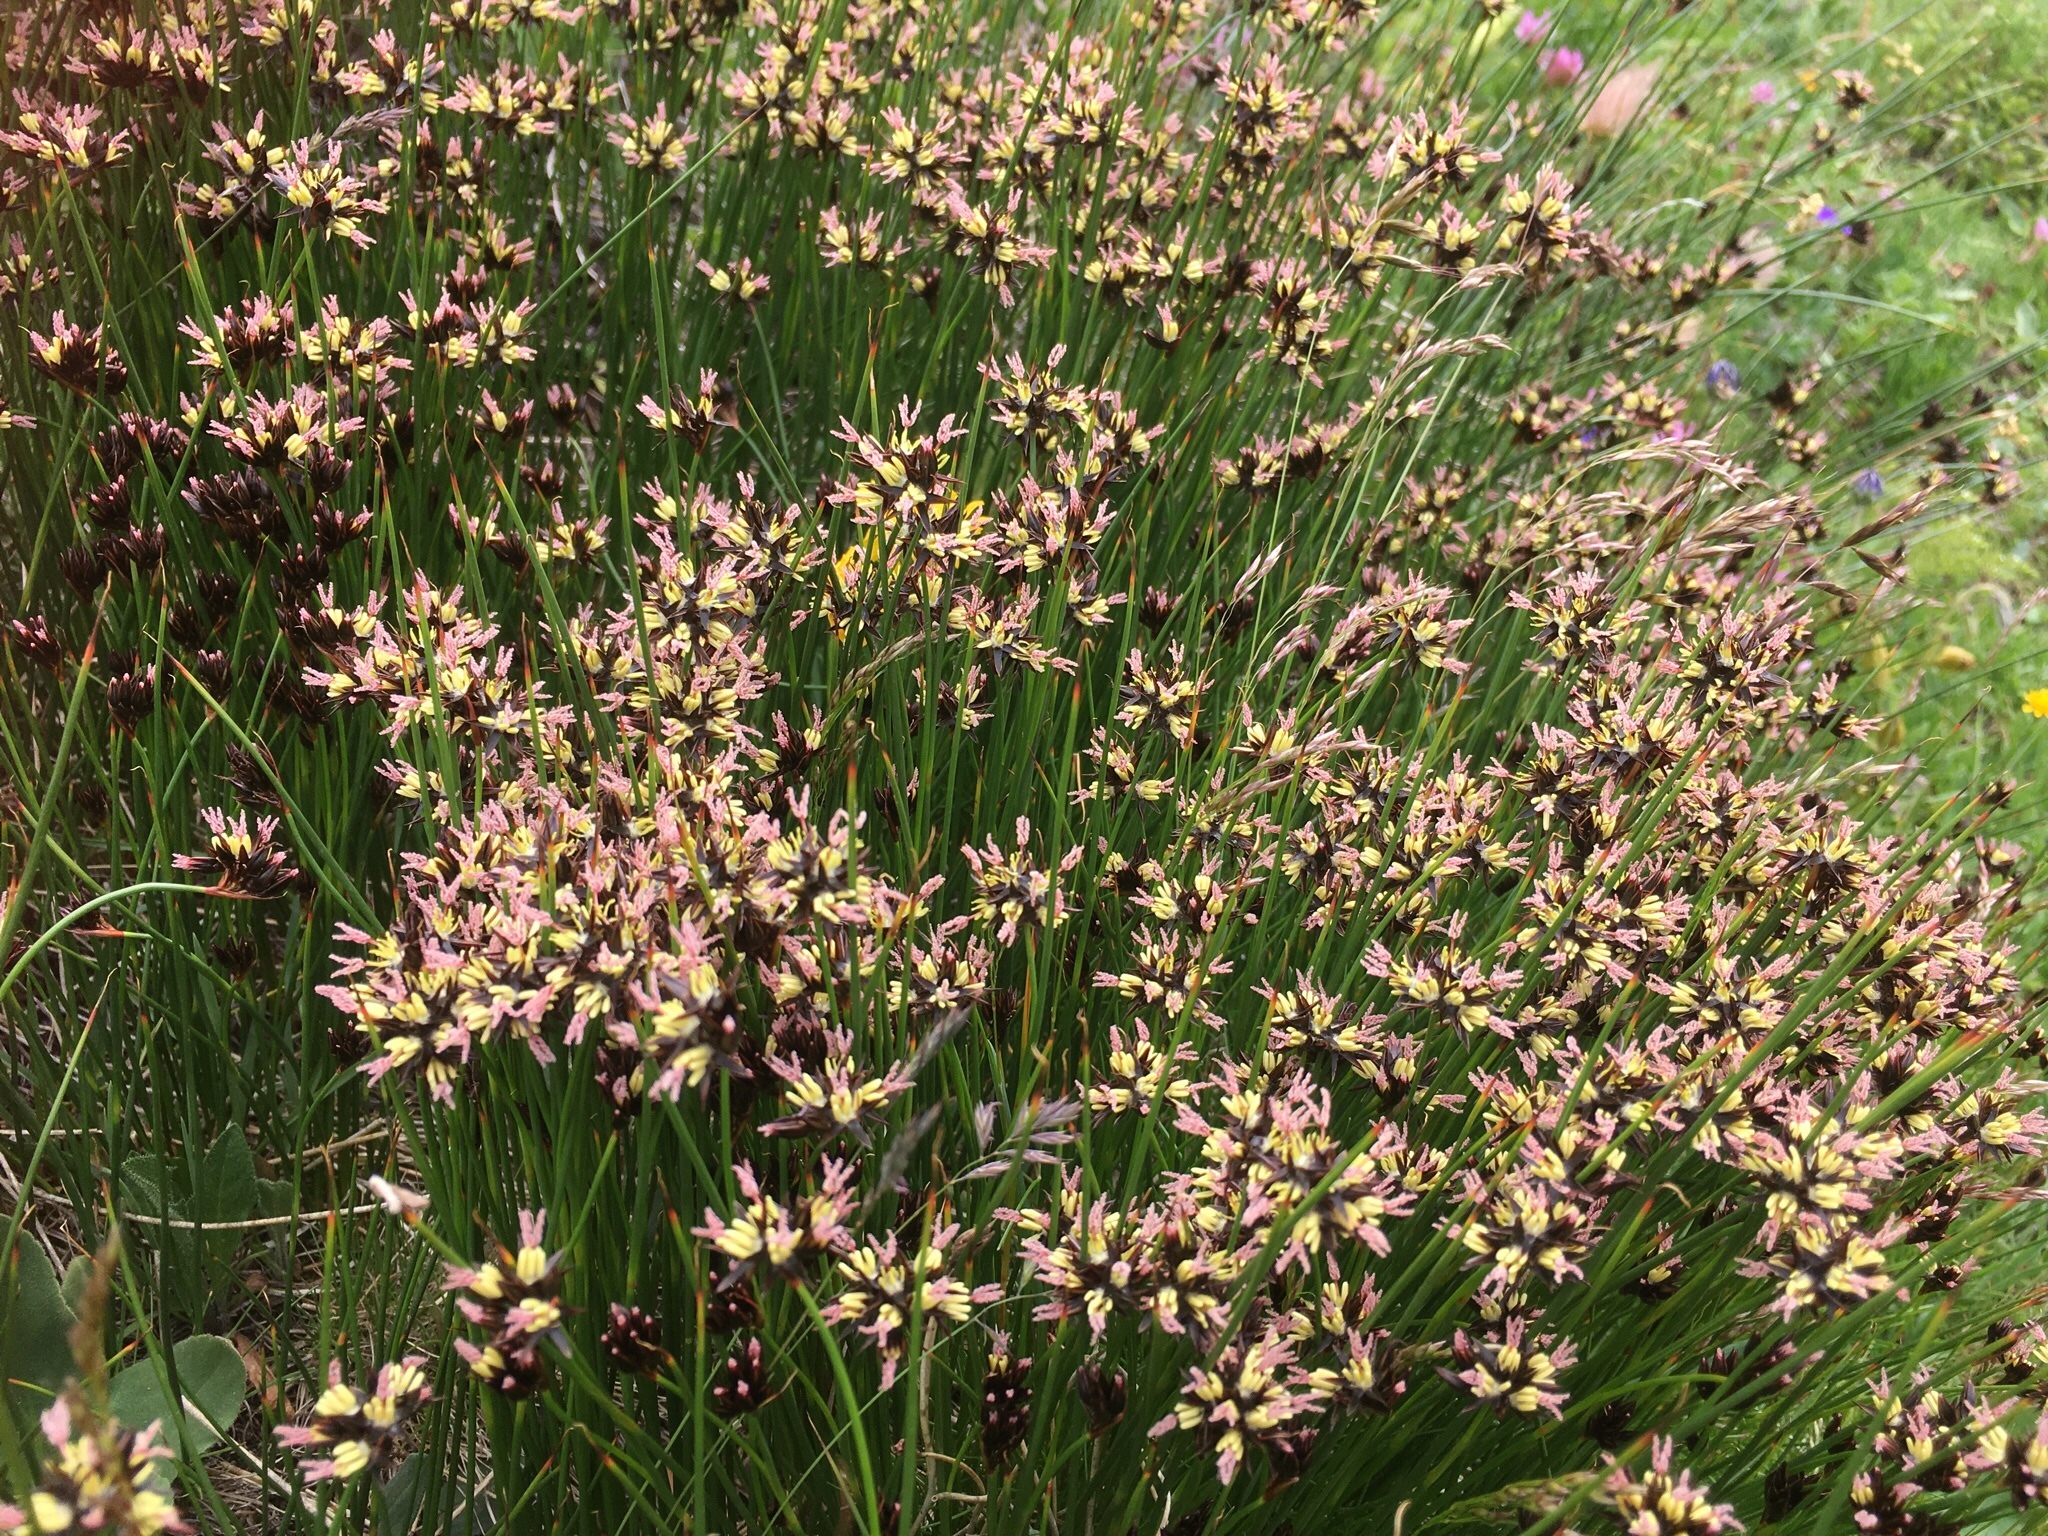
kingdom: Plantae
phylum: Tracheophyta
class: Liliopsida
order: Poales
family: Juncaceae
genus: Juncus
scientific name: Juncus jacquinii
